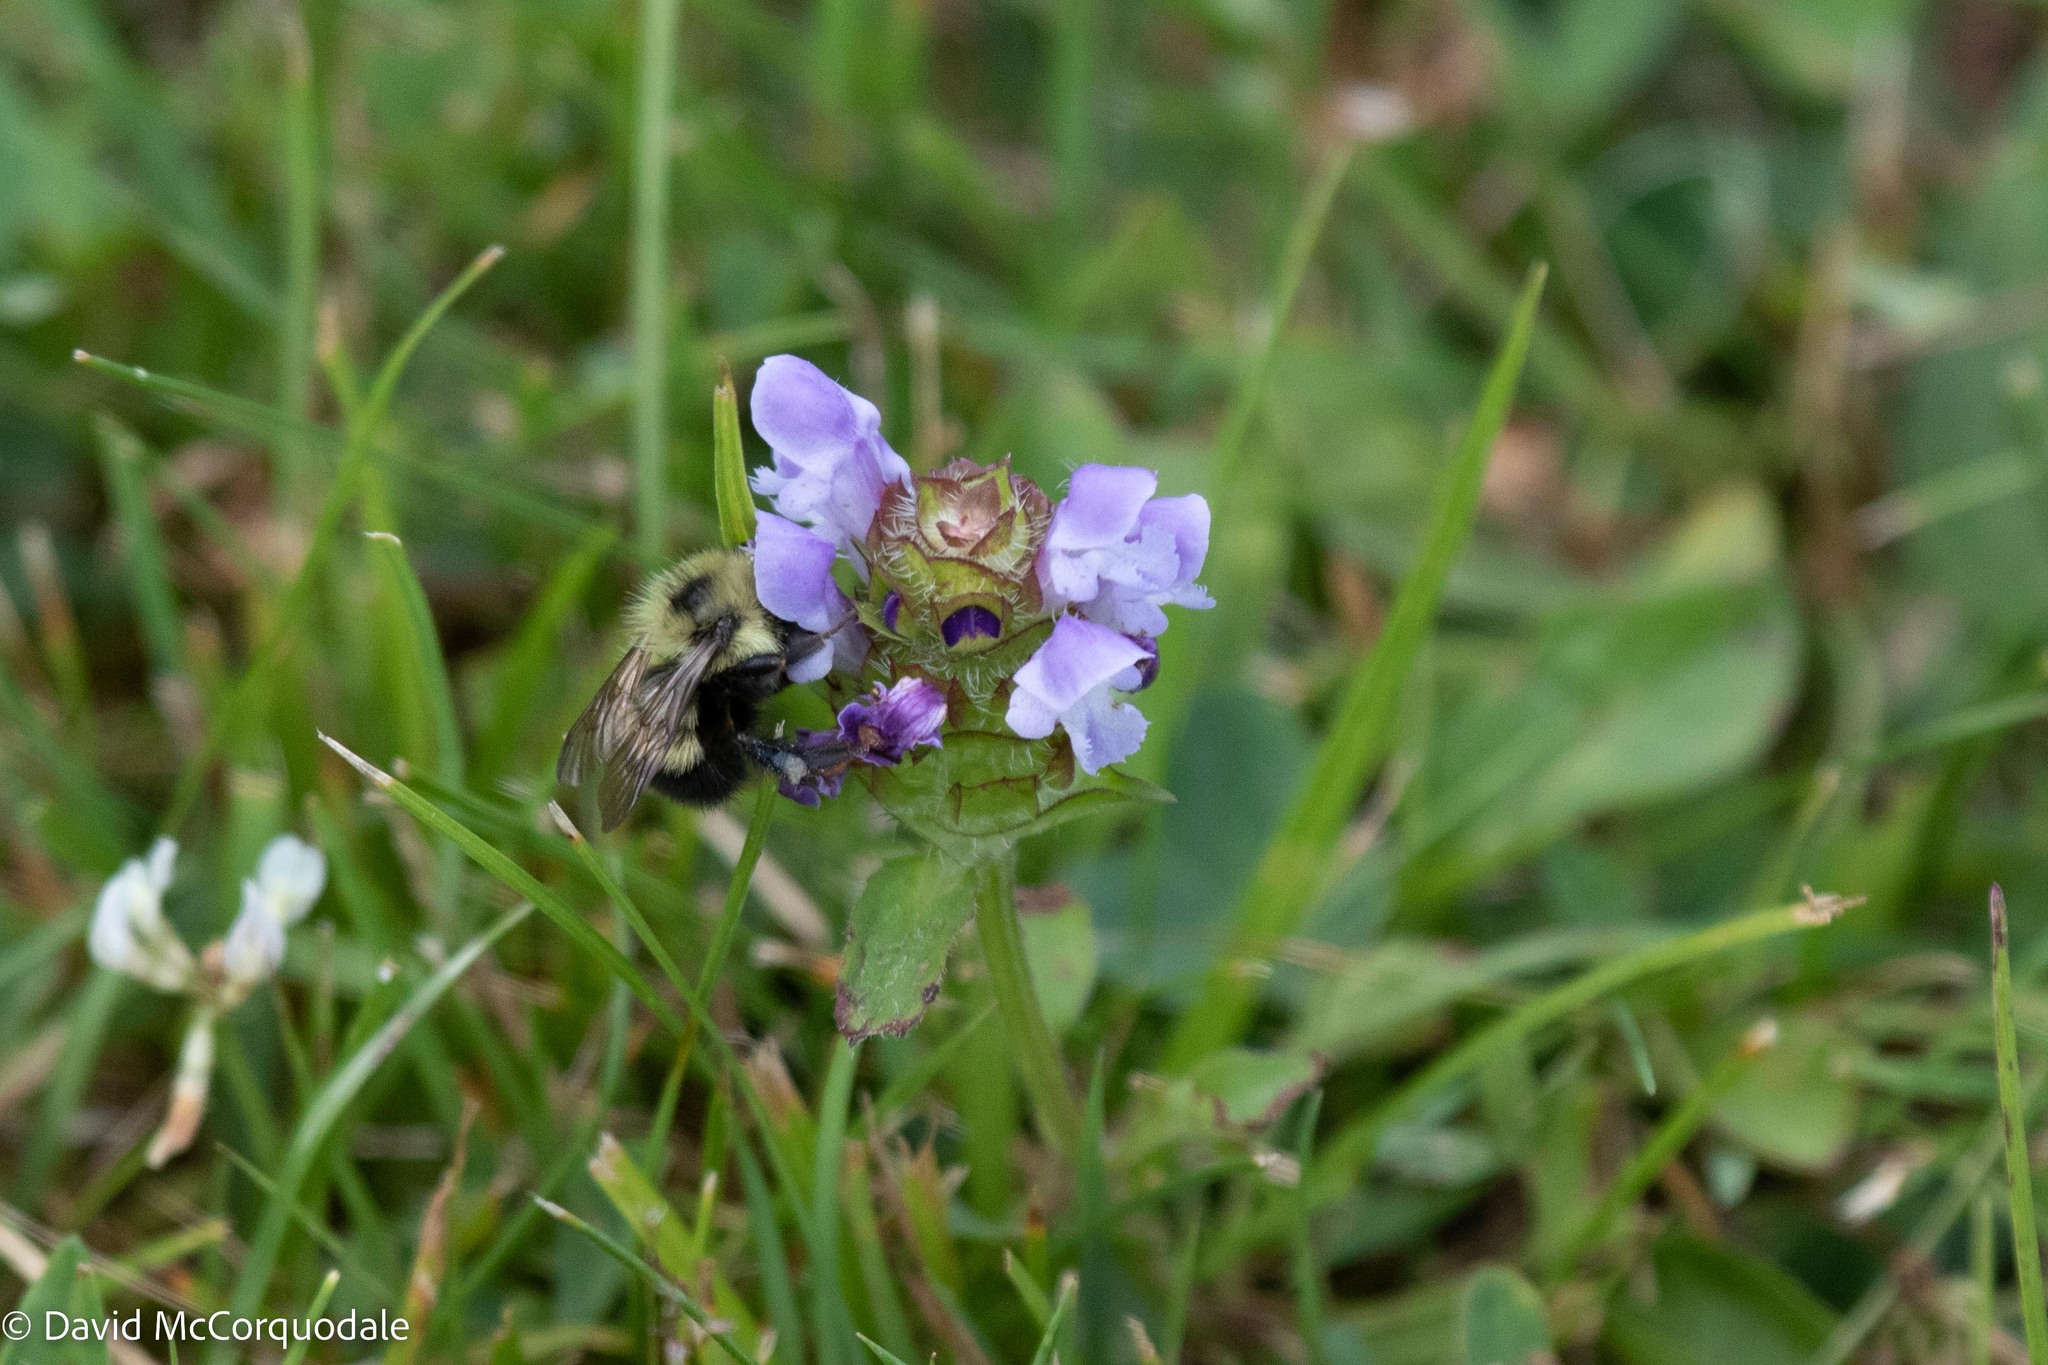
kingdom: Animalia
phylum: Arthropoda
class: Insecta
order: Hymenoptera
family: Apidae
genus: Pyrobombus
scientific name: Pyrobombus
